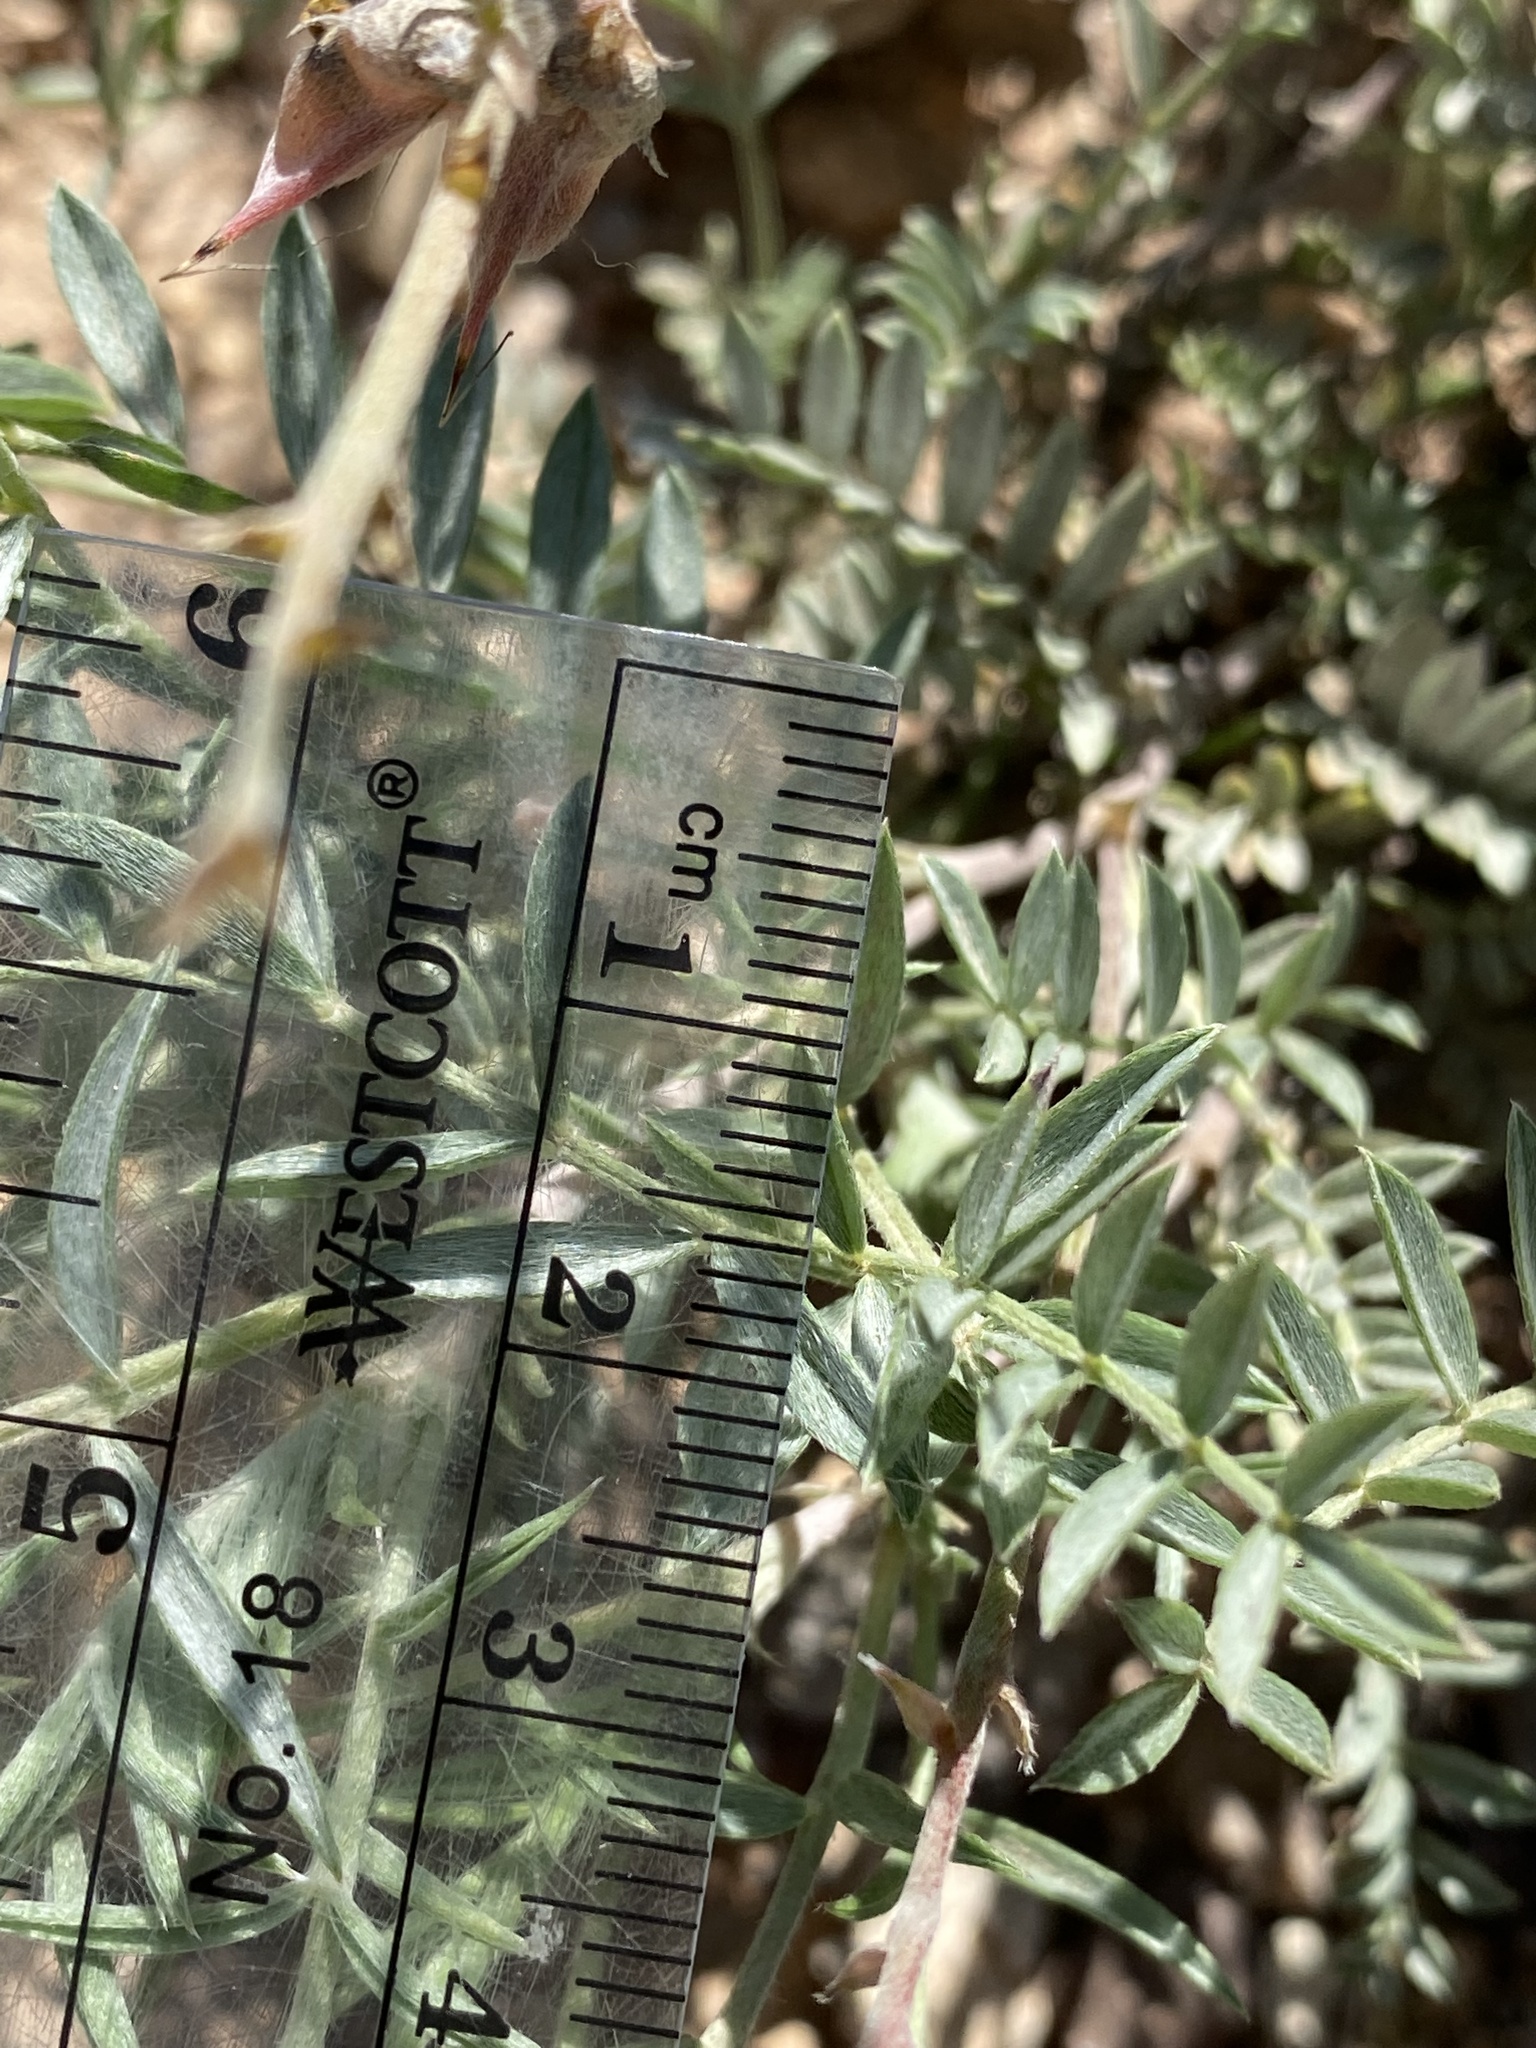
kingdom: Plantae
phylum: Tracheophyta
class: Magnoliopsida
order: Fabales
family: Fabaceae
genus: Astragalus
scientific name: Astragalus humistratus
